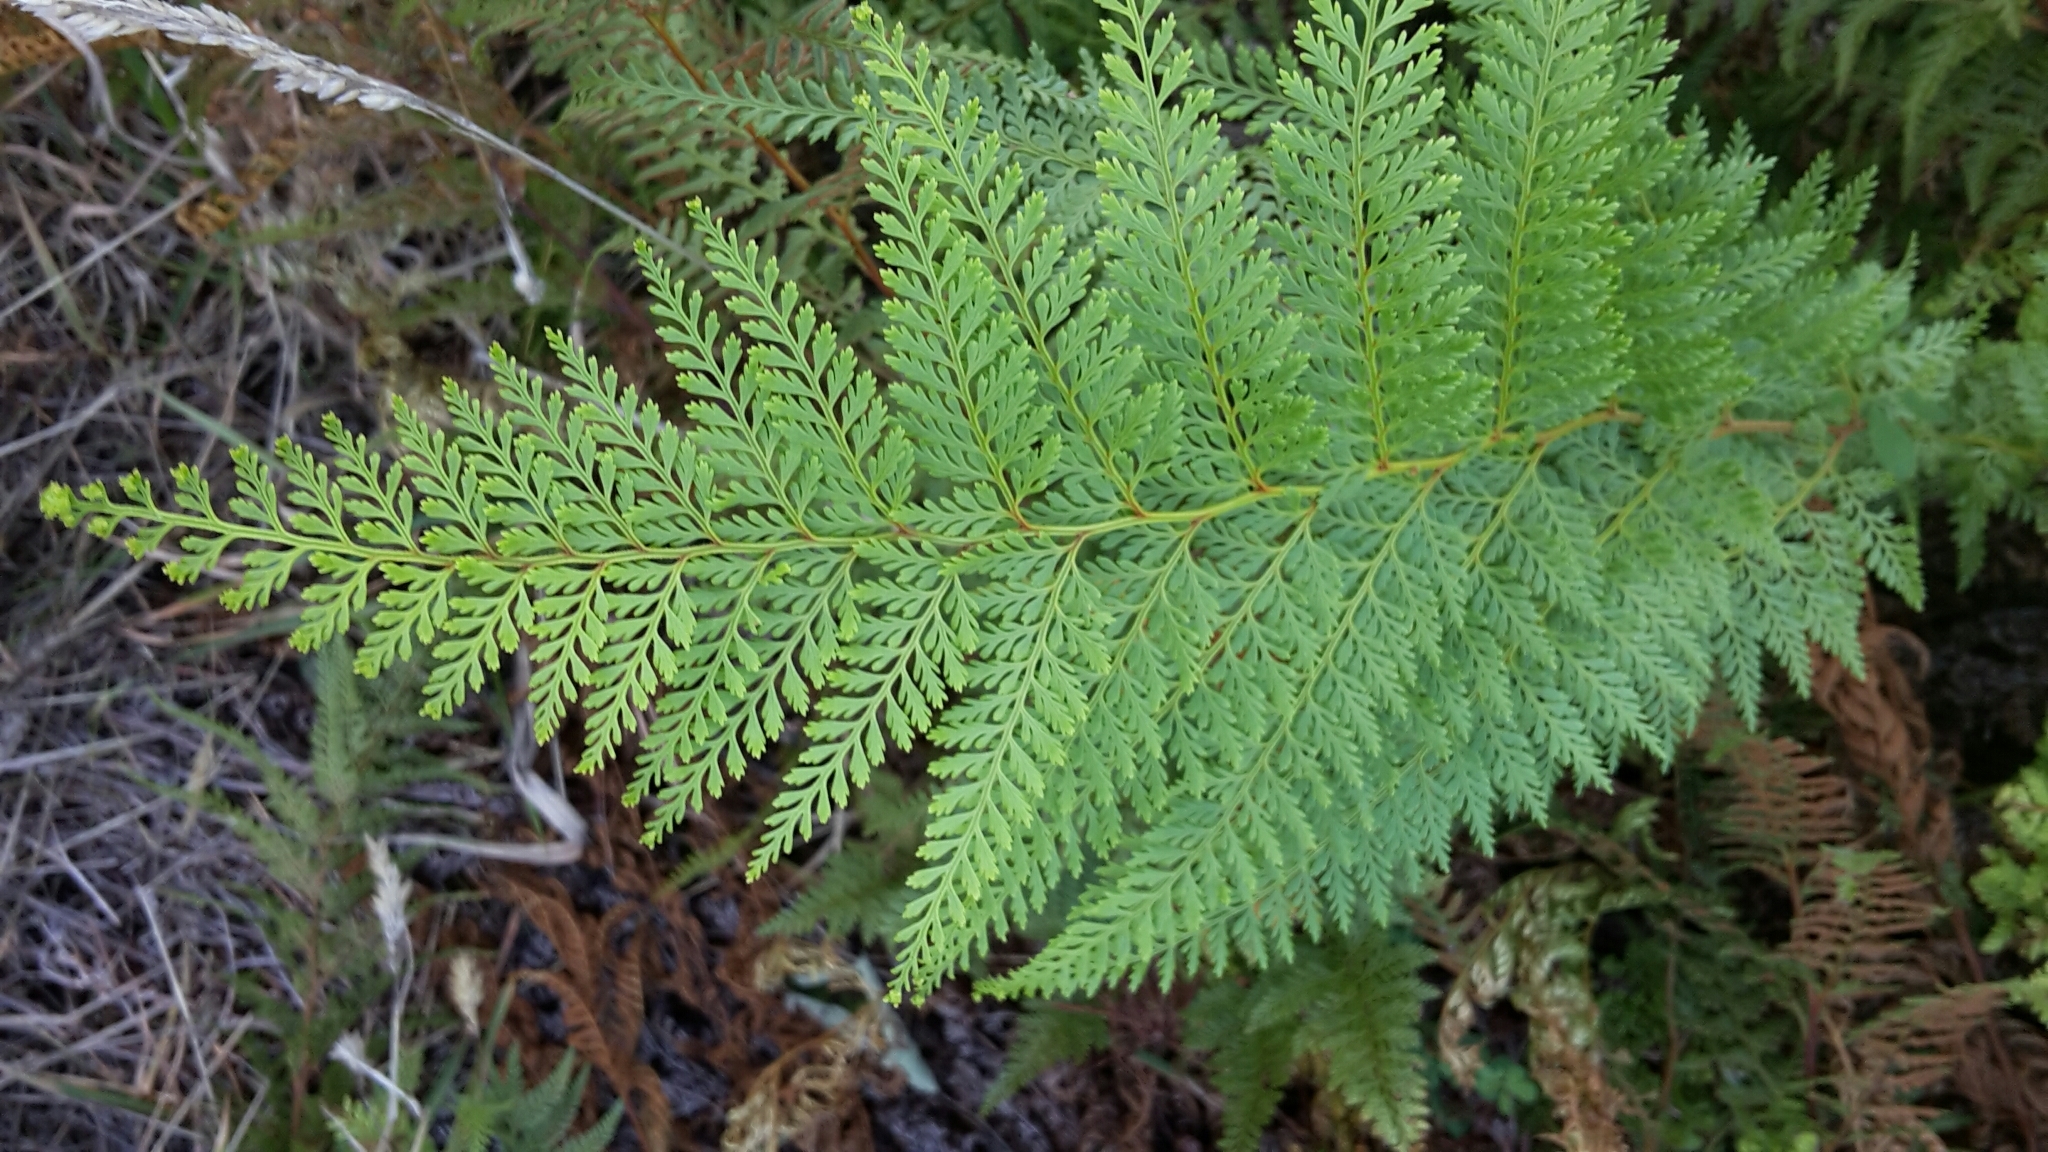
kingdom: Plantae
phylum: Tracheophyta
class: Polypodiopsida
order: Polypodiales
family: Dennstaedtiaceae
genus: Paesia
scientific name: Paesia scaberula
